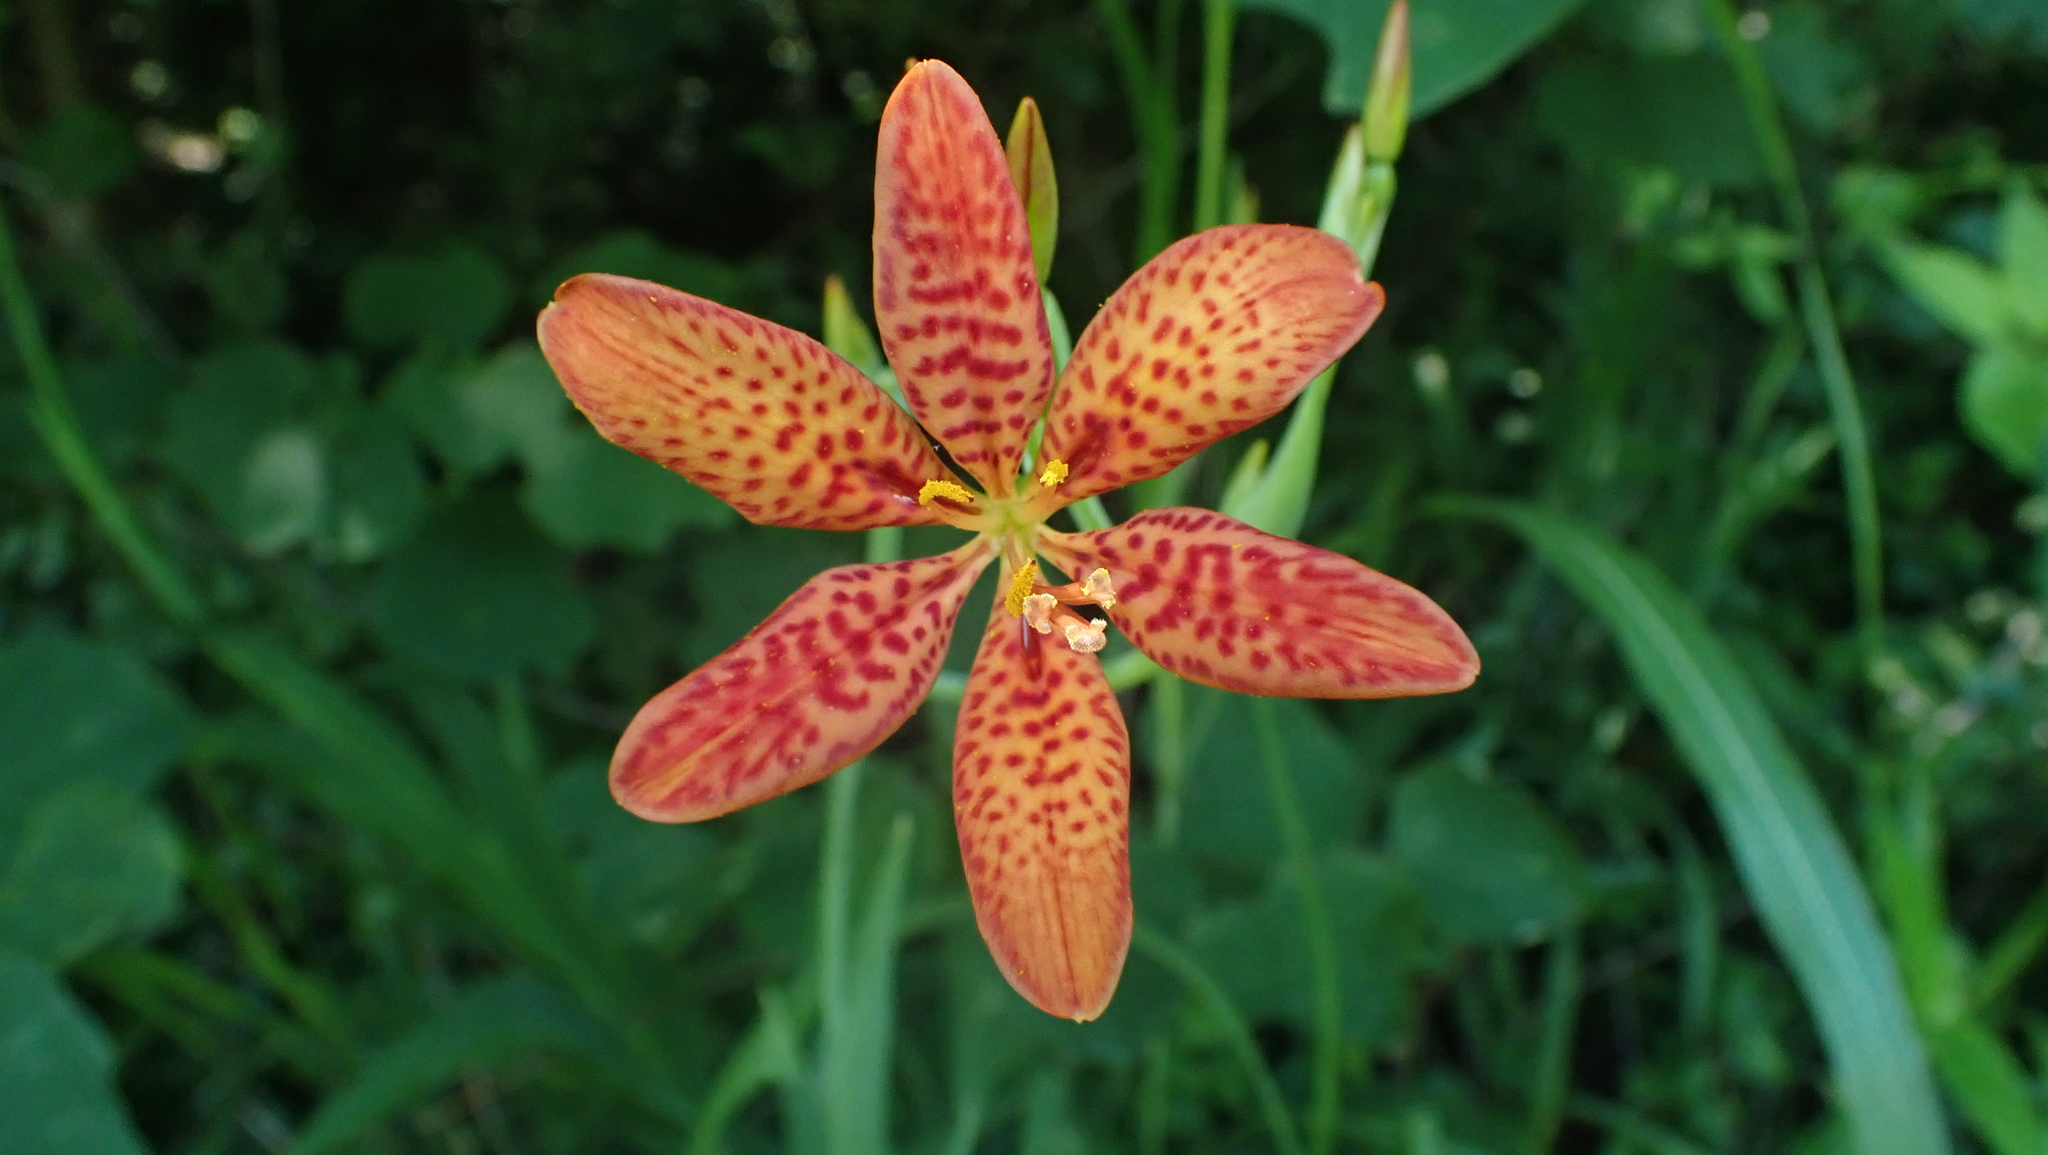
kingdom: Plantae
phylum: Tracheophyta
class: Liliopsida
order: Asparagales
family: Iridaceae
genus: Iris
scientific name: Iris domestica
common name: Belamcanda
